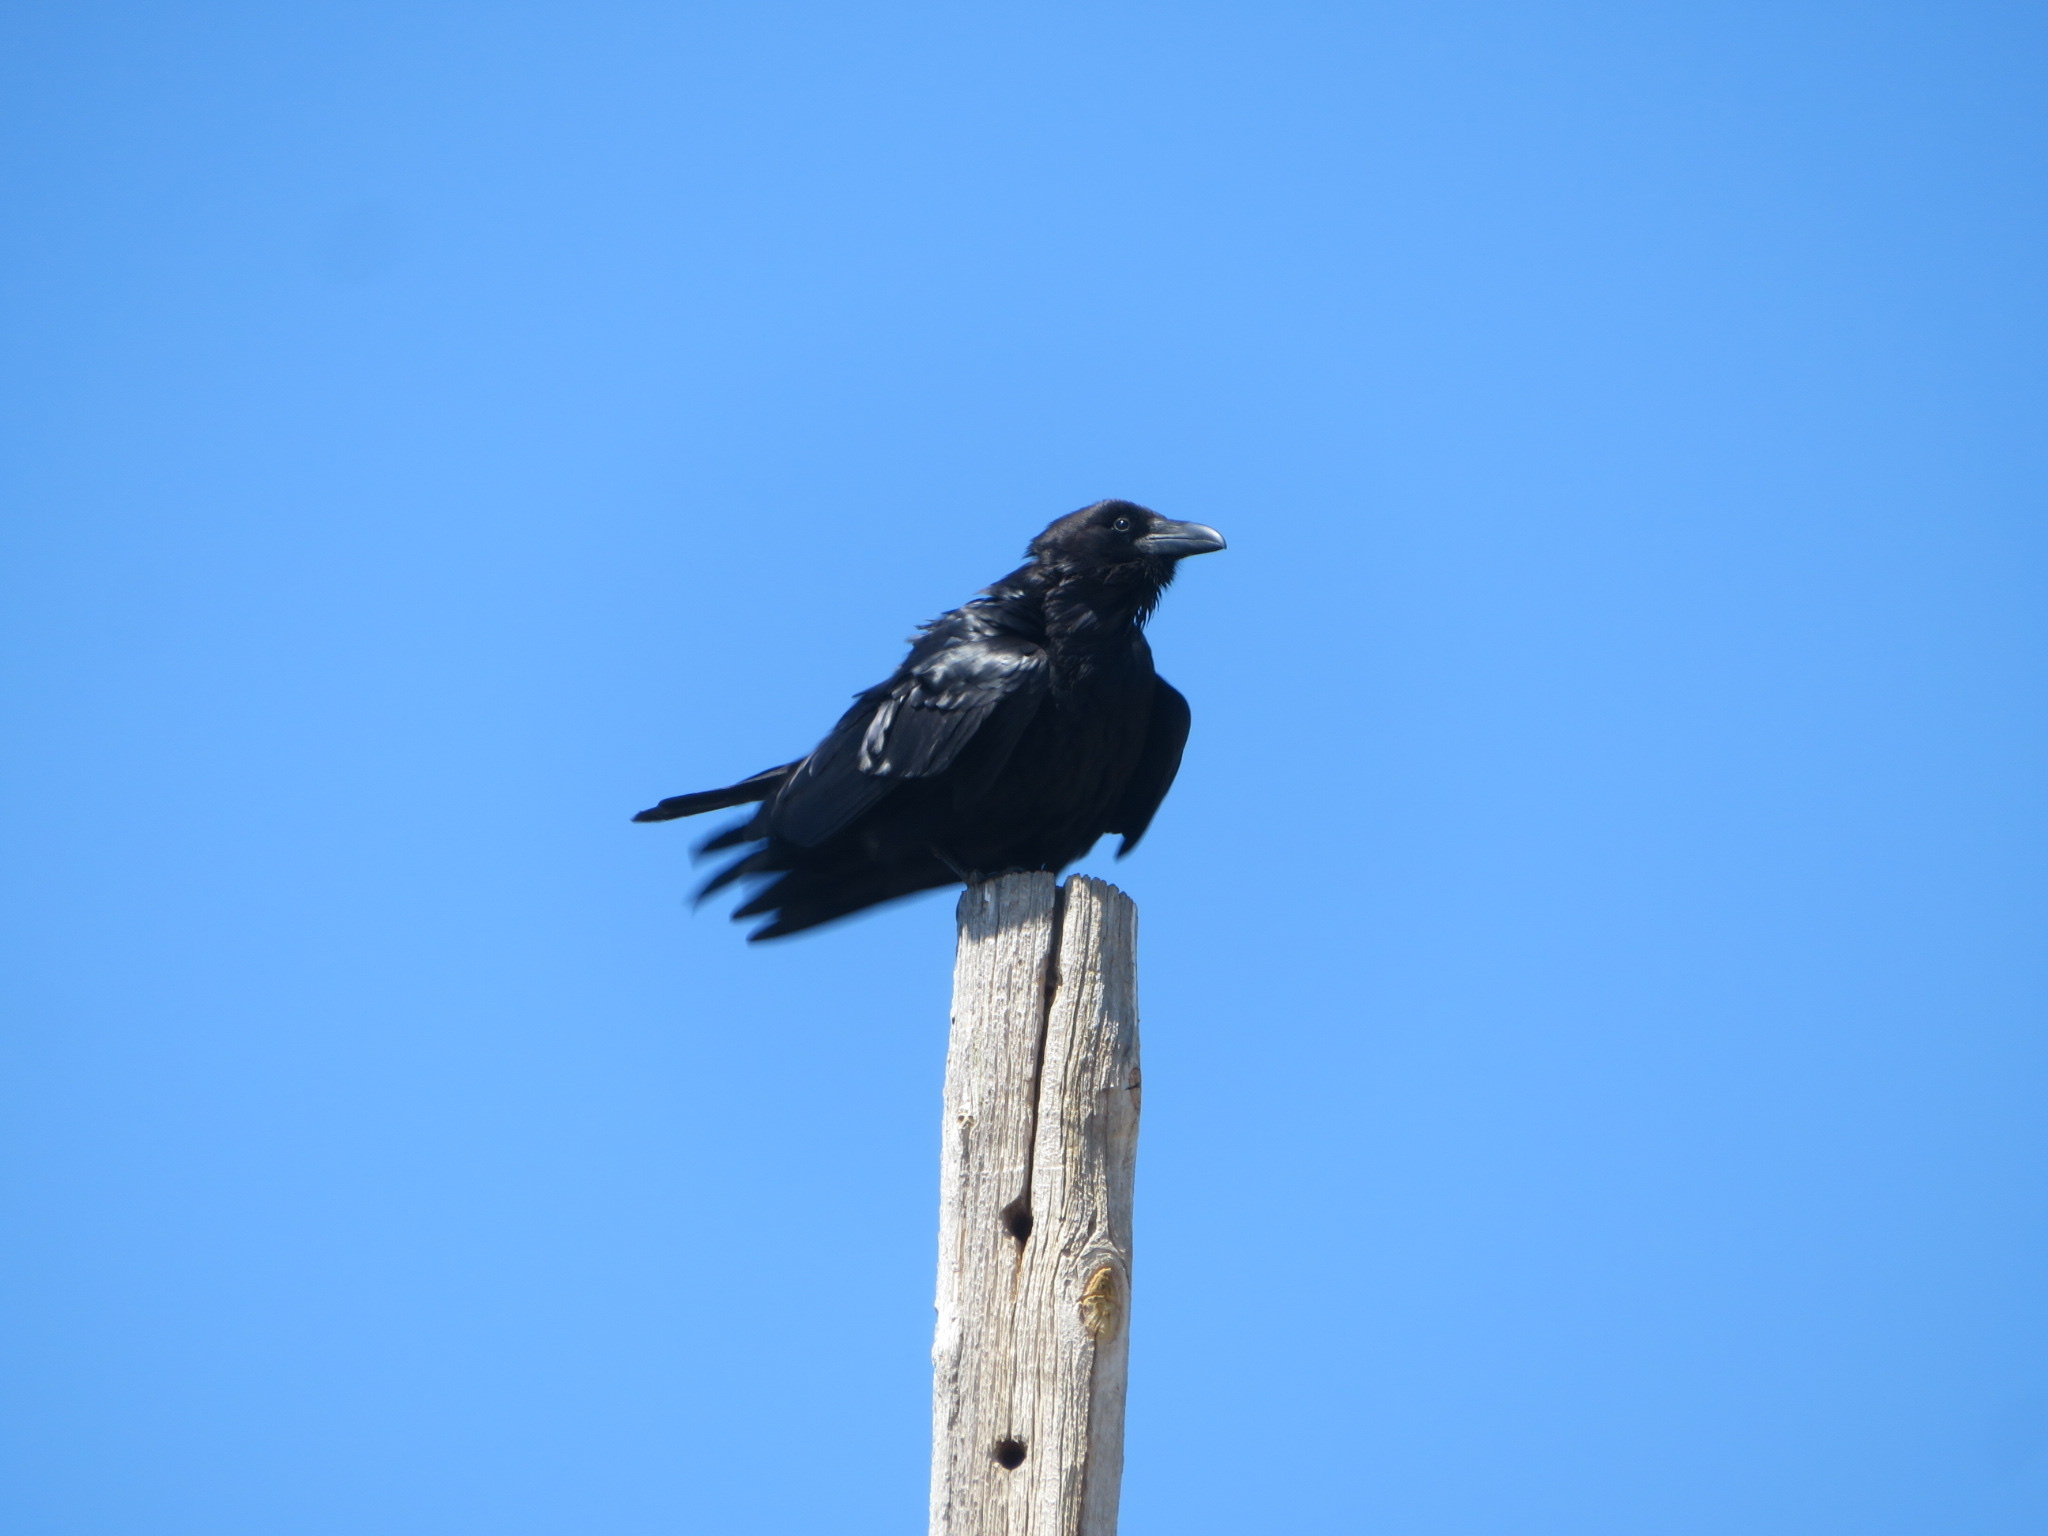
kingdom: Animalia
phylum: Chordata
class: Aves
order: Passeriformes
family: Corvidae
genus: Corvus
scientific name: Corvus corax
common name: Common raven
